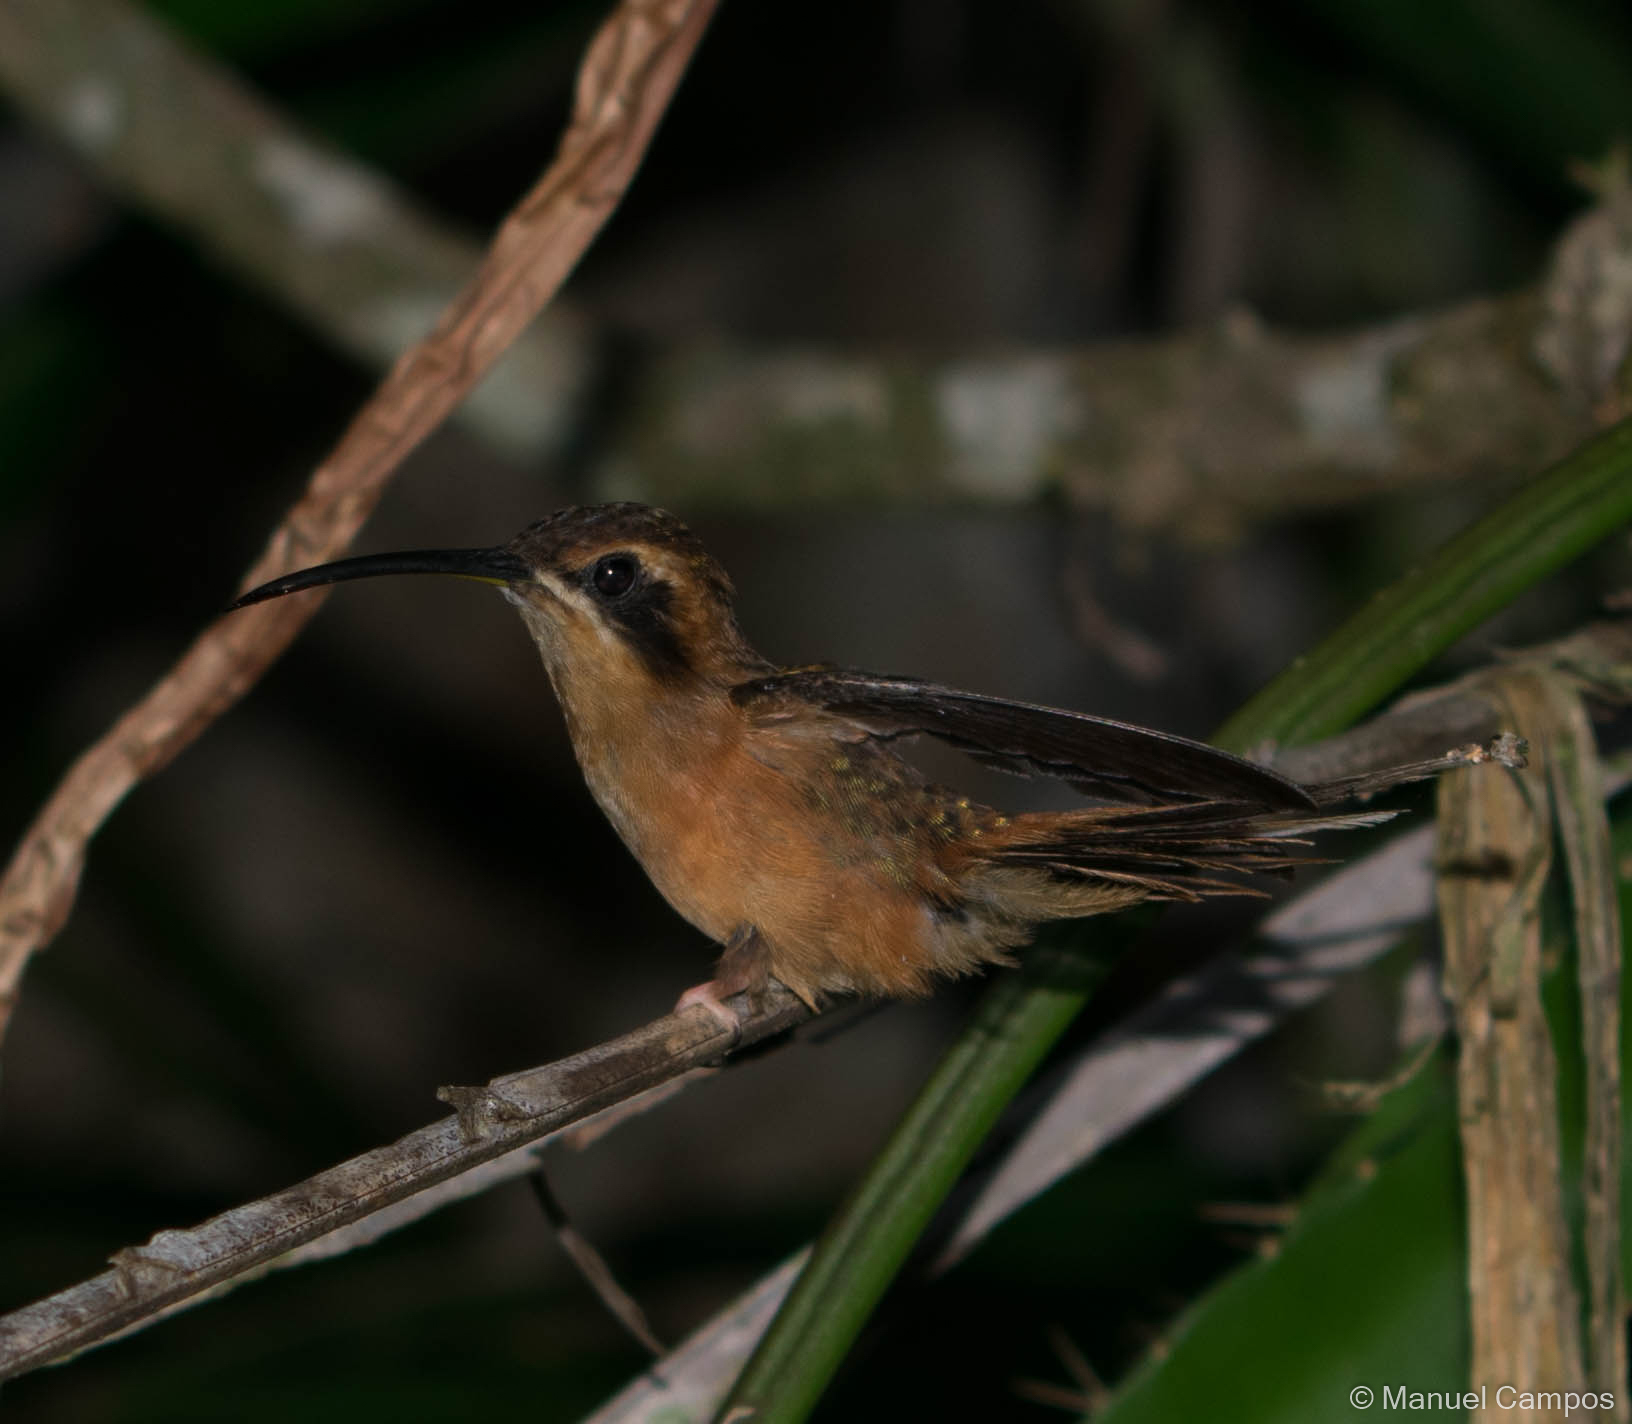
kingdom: Animalia
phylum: Chordata
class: Aves
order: Apodiformes
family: Trochilidae
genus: Phaethornis
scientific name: Phaethornis striigularis
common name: Stripe-throated hermit
